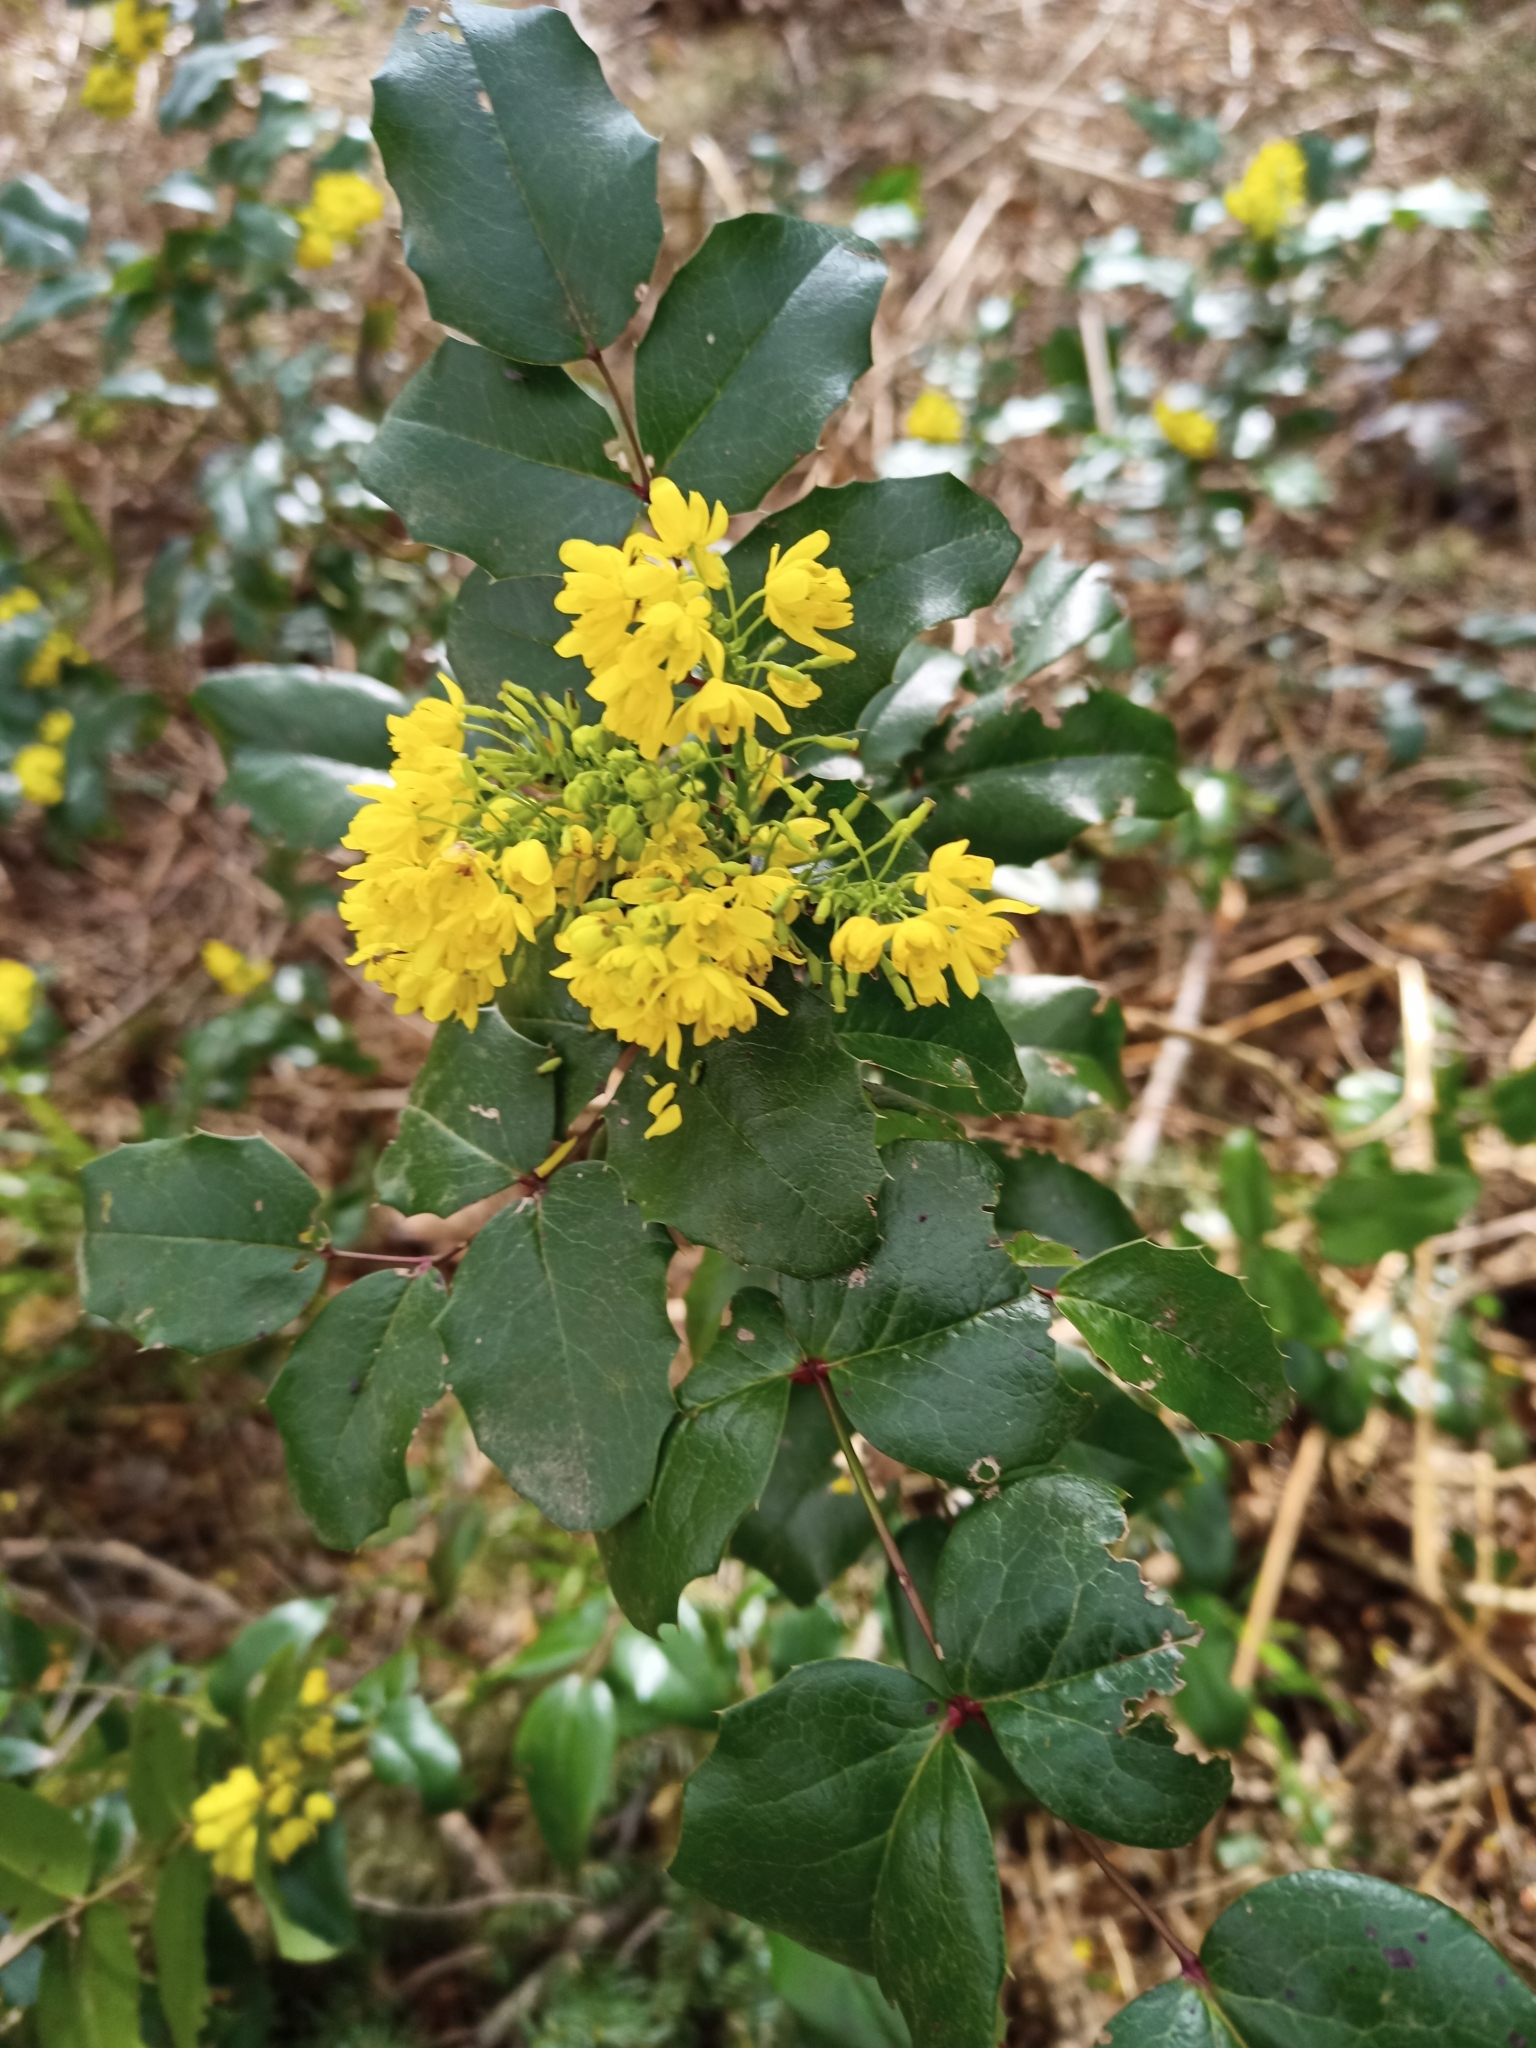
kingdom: Plantae
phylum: Tracheophyta
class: Magnoliopsida
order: Ranunculales
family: Berberidaceae
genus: Mahonia
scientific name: Mahonia aquifolium
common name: Oregon-grape
